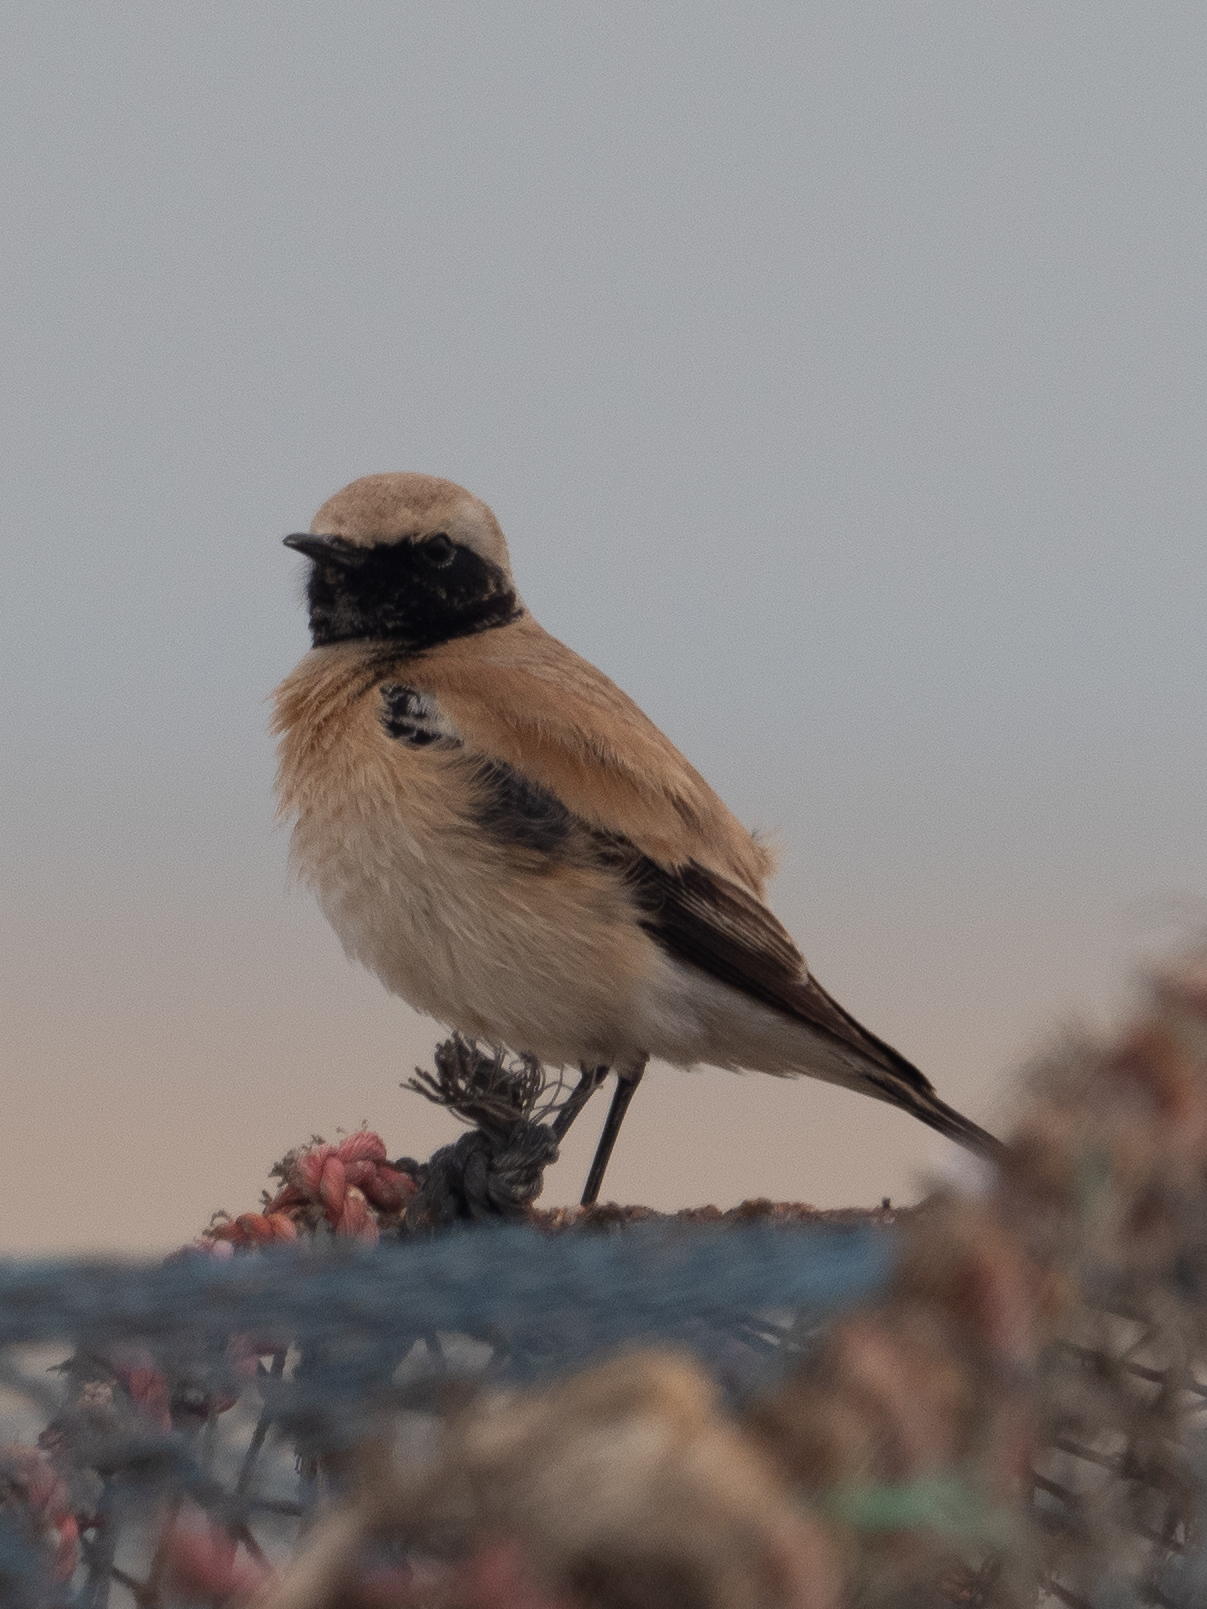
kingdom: Animalia
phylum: Chordata
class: Aves
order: Passeriformes
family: Muscicapidae
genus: Oenanthe
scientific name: Oenanthe deserti
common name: Desert wheatear
